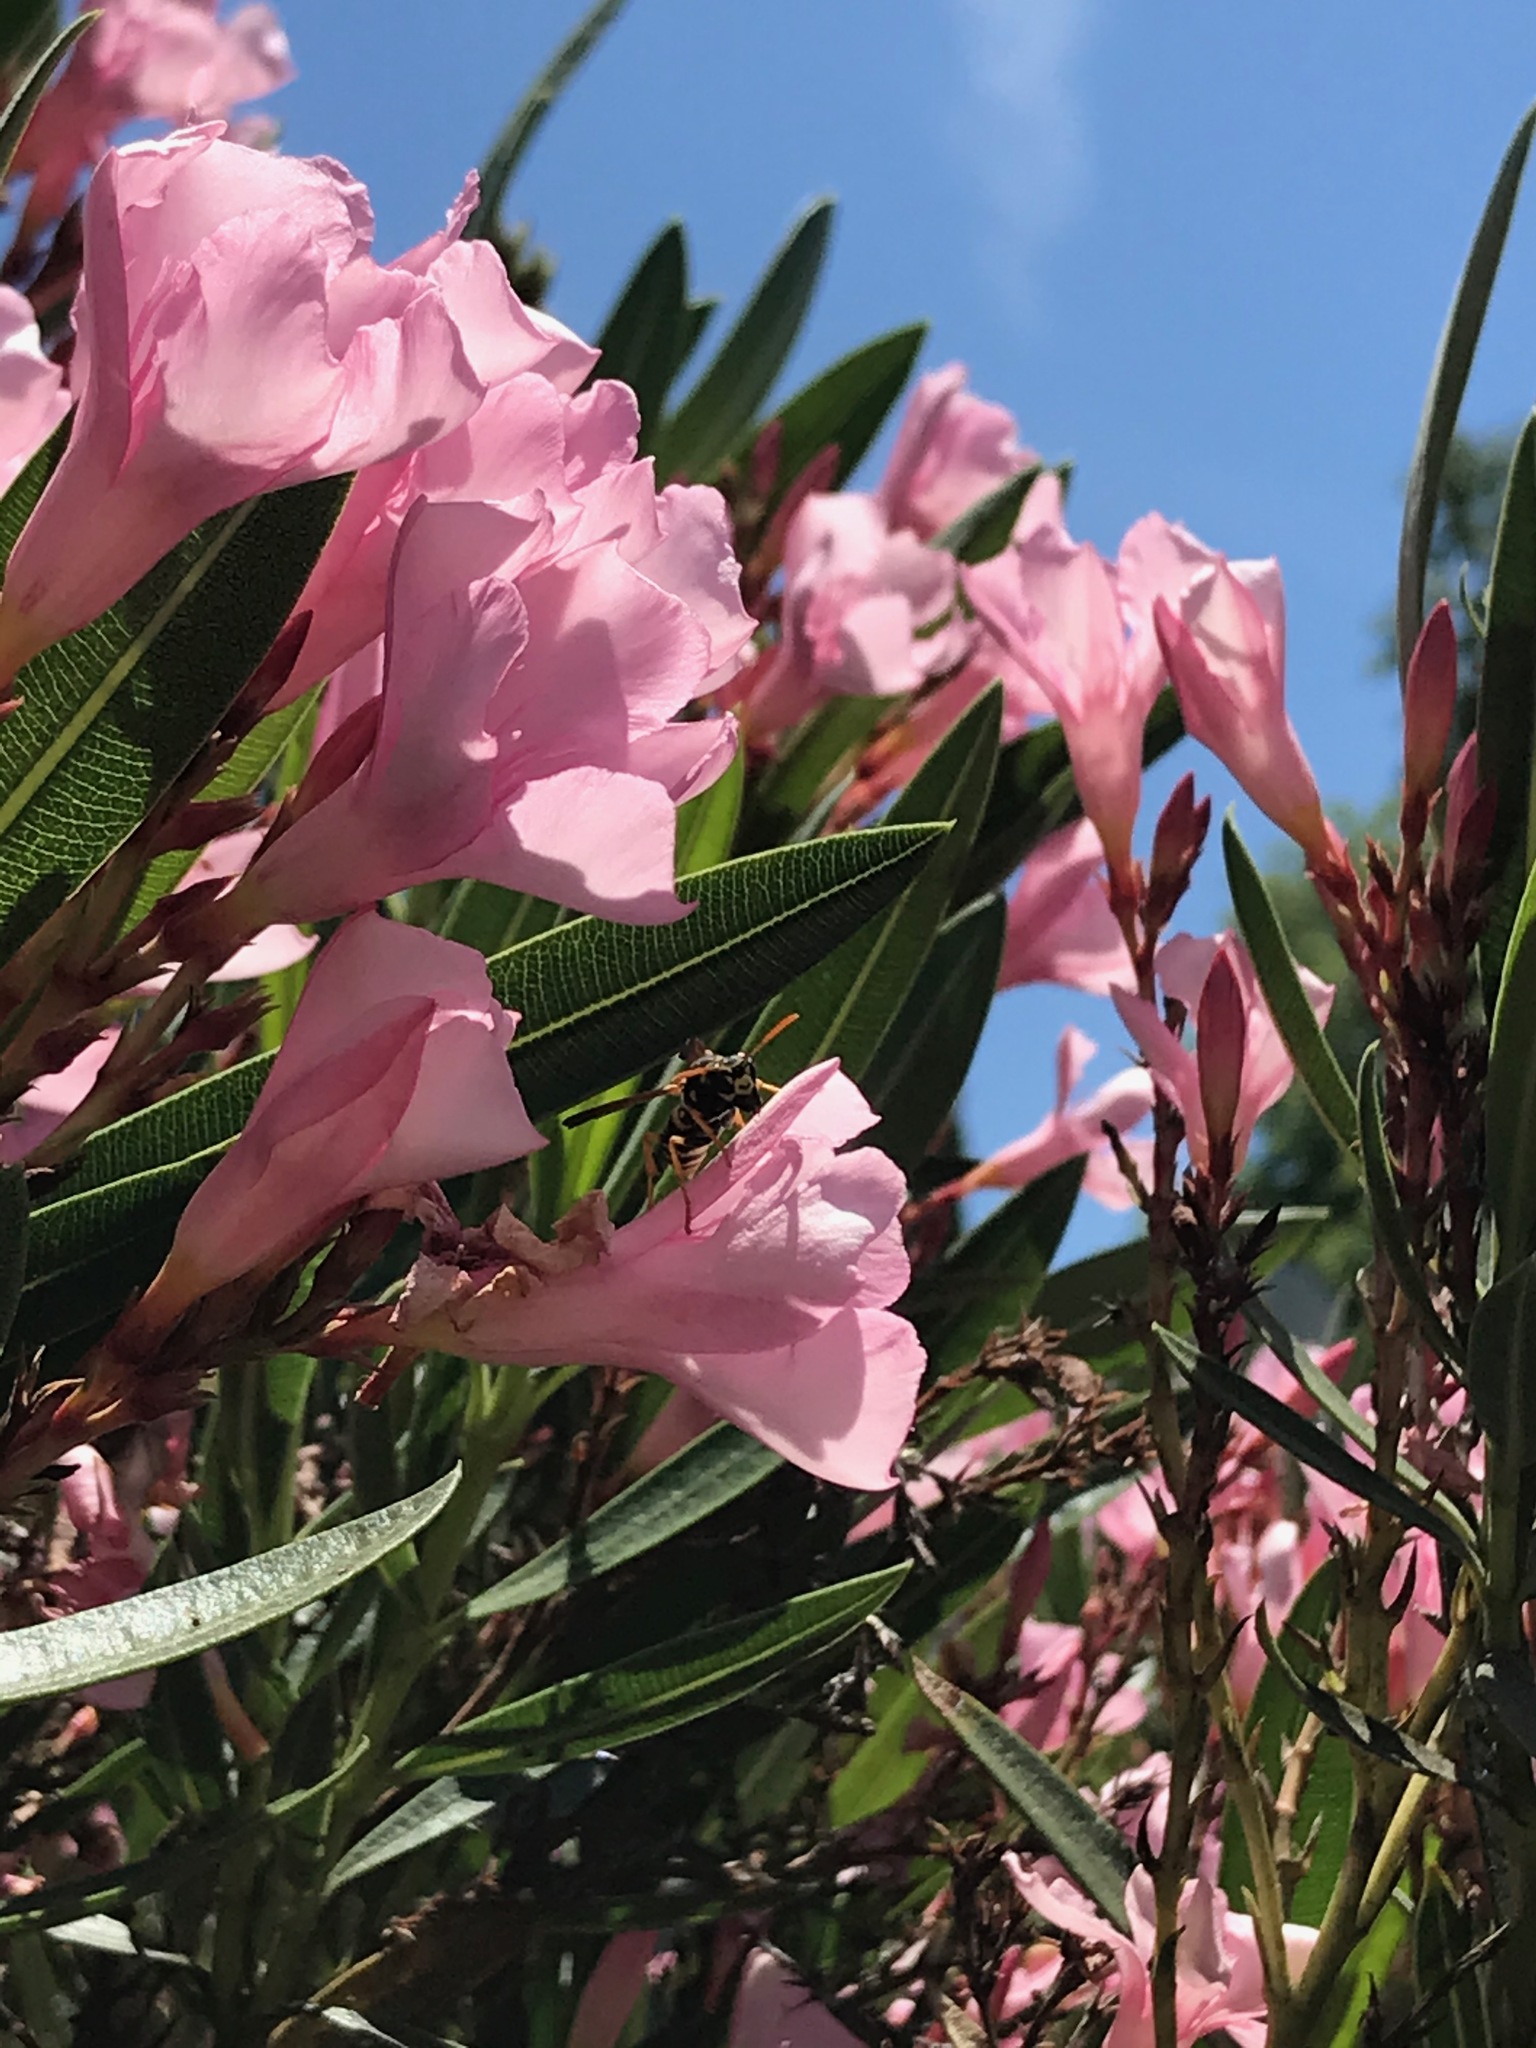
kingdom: Animalia
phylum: Arthropoda
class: Insecta
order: Hymenoptera
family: Eumenidae
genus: Polistes
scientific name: Polistes dominula
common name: Paper wasp
